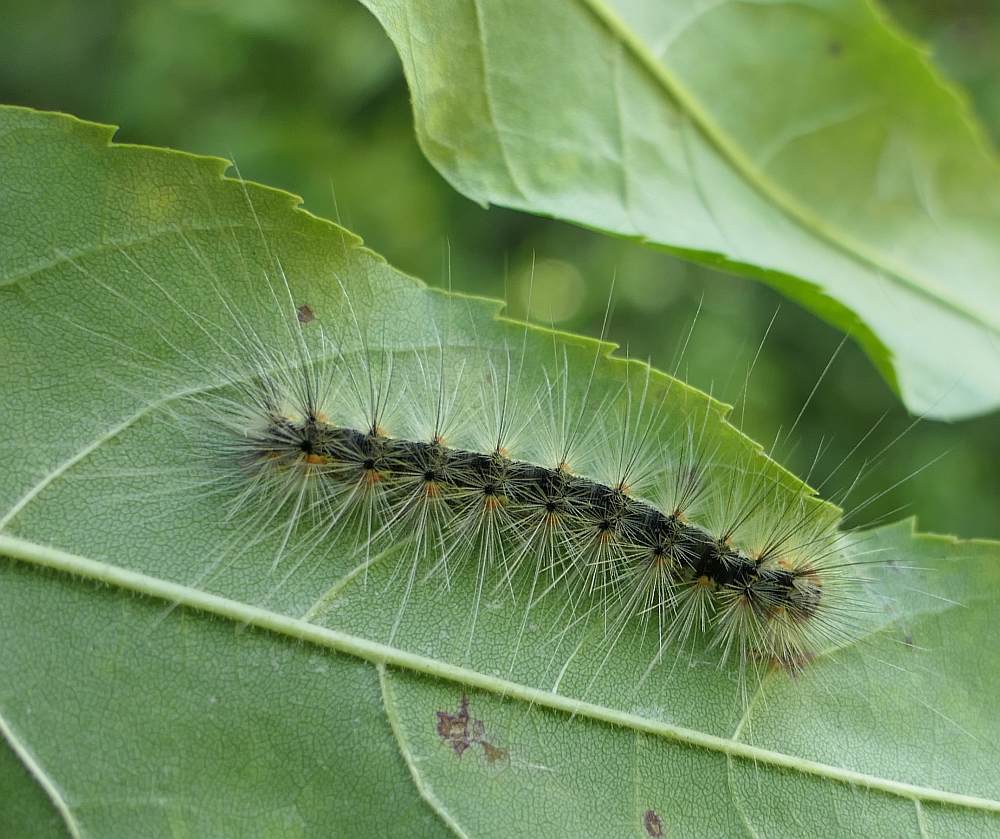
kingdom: Animalia
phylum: Arthropoda
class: Insecta
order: Lepidoptera
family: Erebidae
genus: Hyphantria
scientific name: Hyphantria cunea
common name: American white moth
